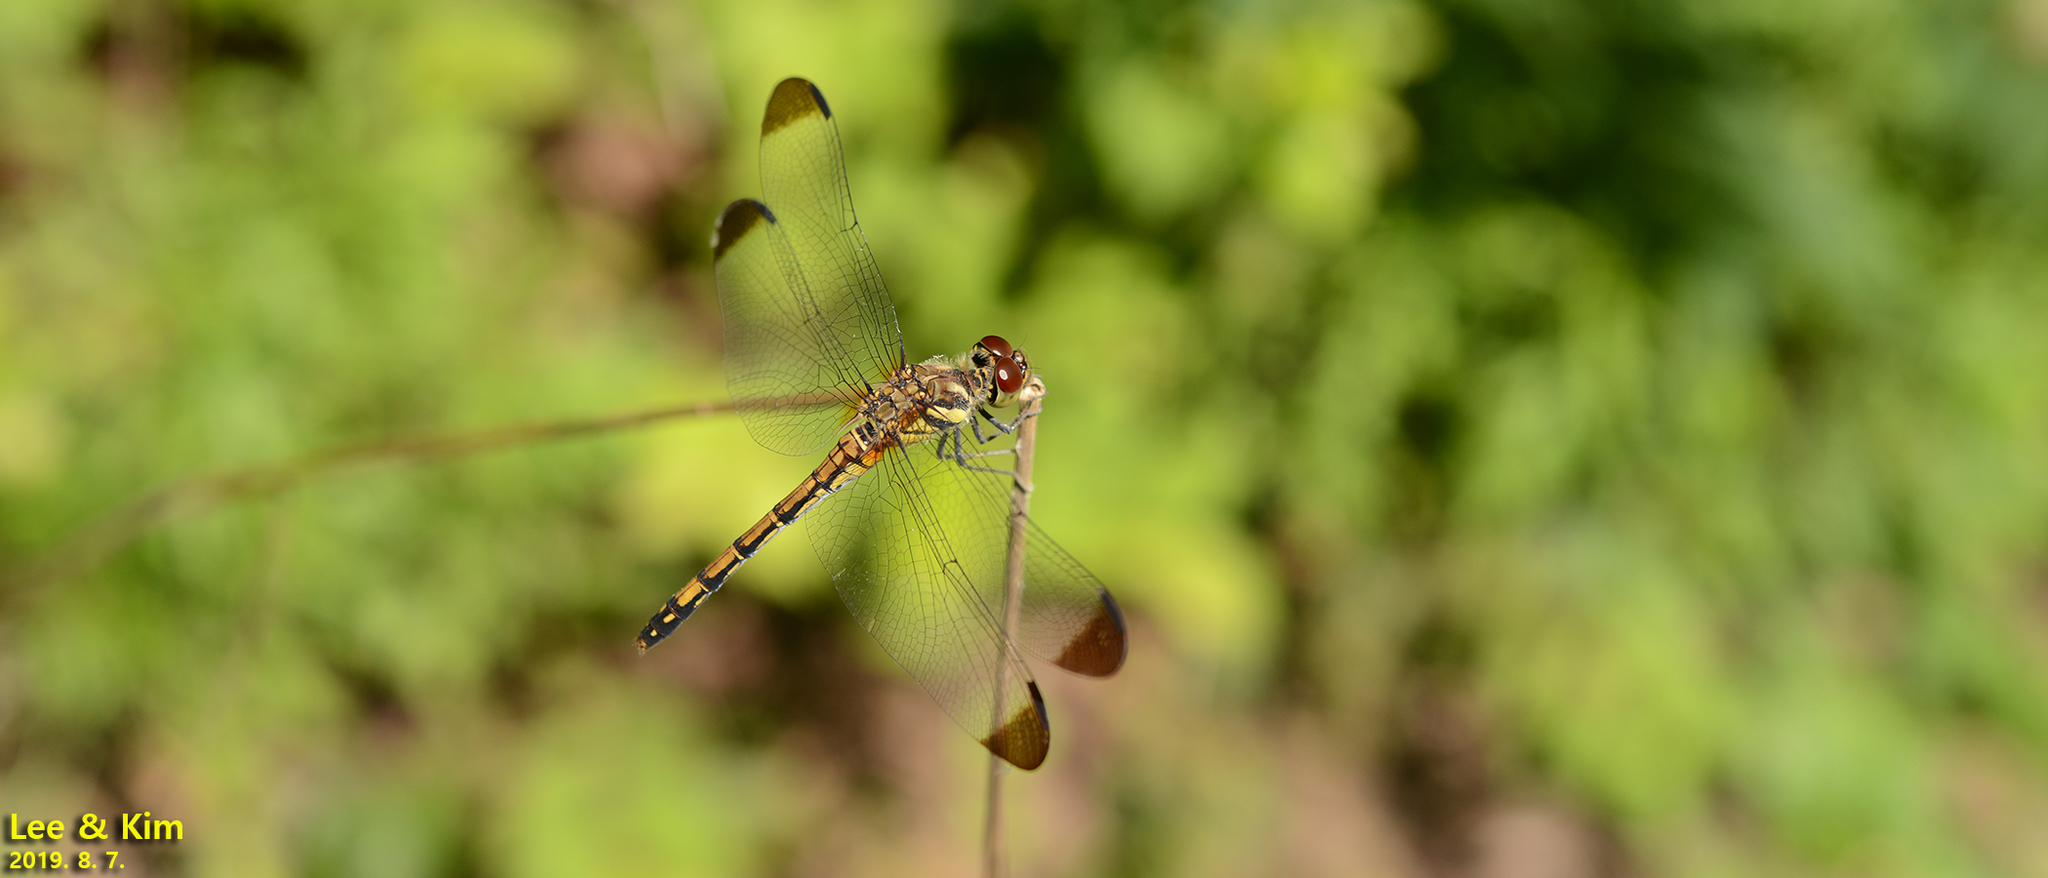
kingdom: Animalia
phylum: Arthropoda
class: Insecta
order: Odonata
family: Libellulidae
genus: Sympetrum
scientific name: Sympetrum infuscatum
